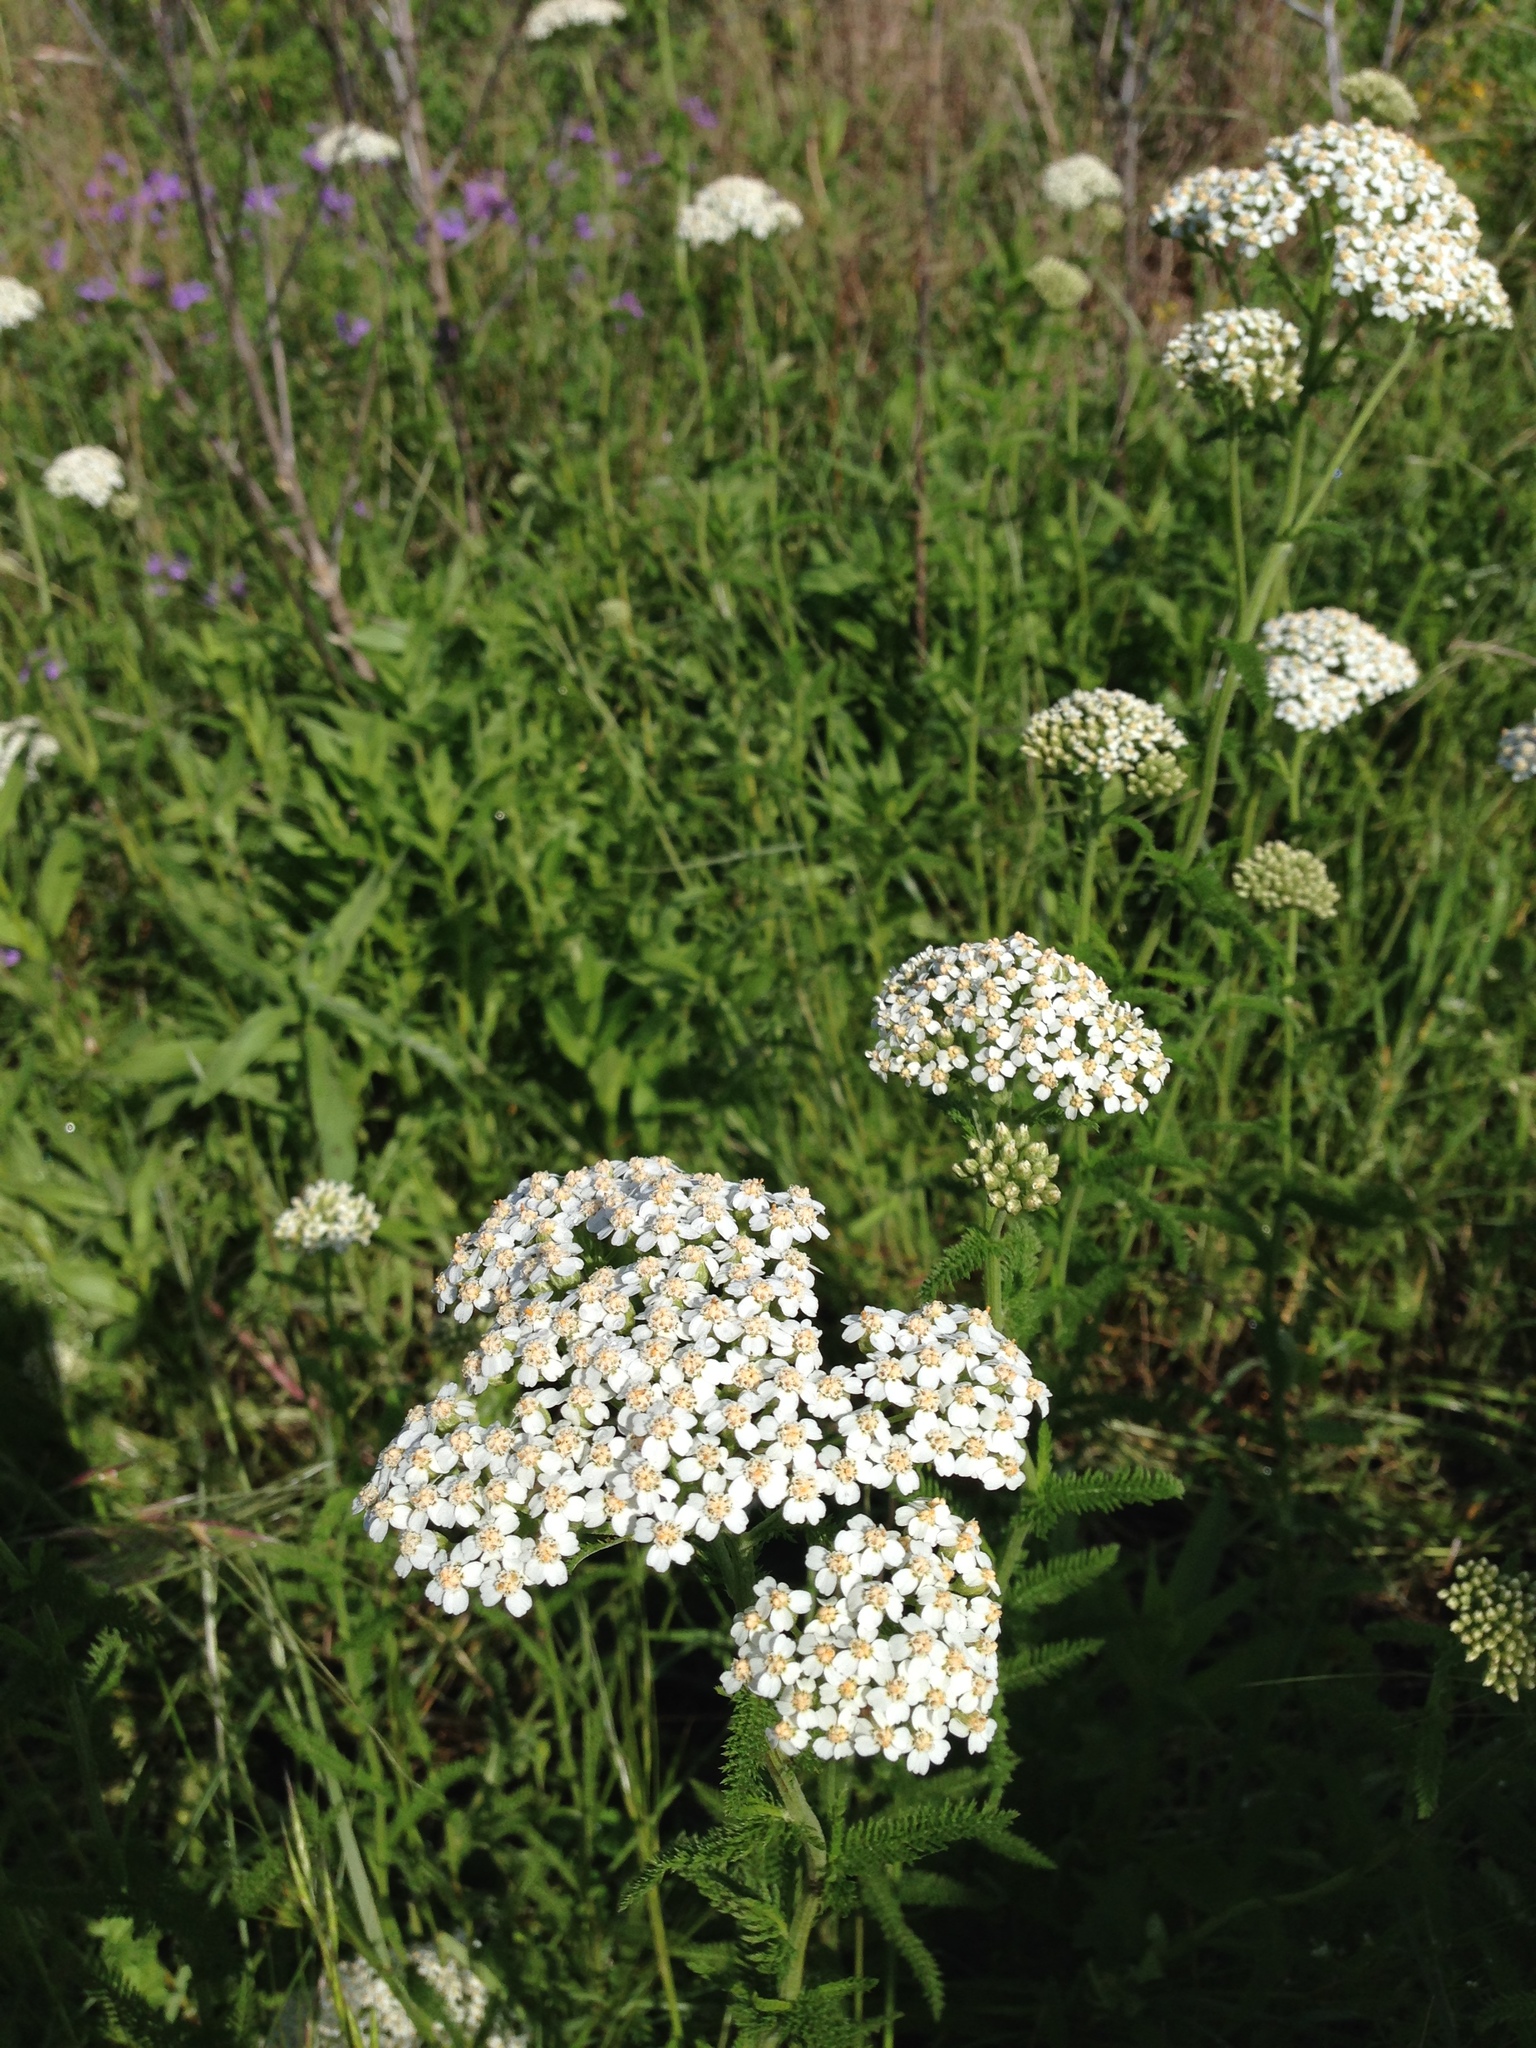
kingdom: Plantae
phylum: Tracheophyta
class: Magnoliopsida
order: Asterales
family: Asteraceae
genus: Achillea
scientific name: Achillea millefolium
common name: Yarrow
